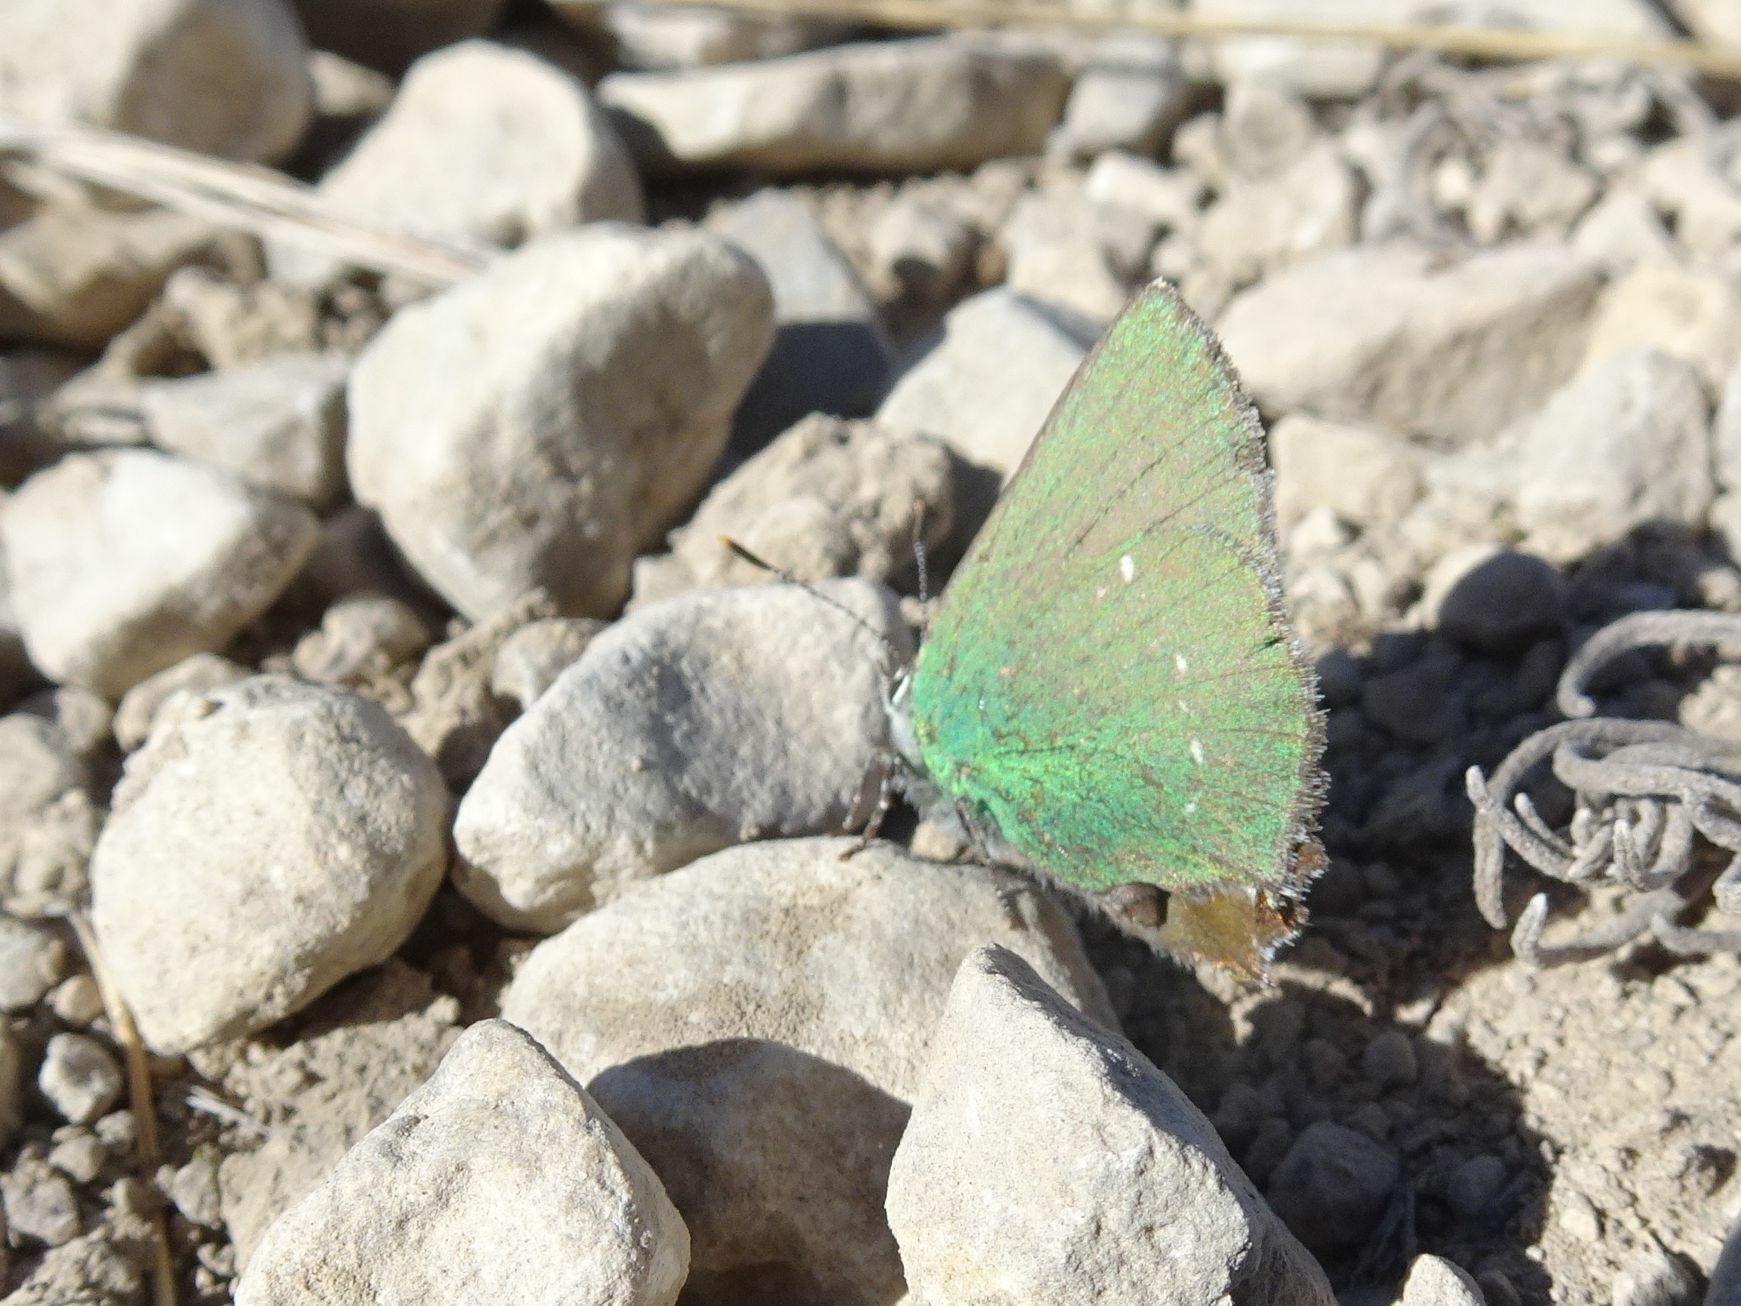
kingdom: Animalia
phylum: Arthropoda
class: Insecta
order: Lepidoptera
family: Lycaenidae
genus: Callophrys
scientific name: Callophrys rubi
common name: Green hairstreak
